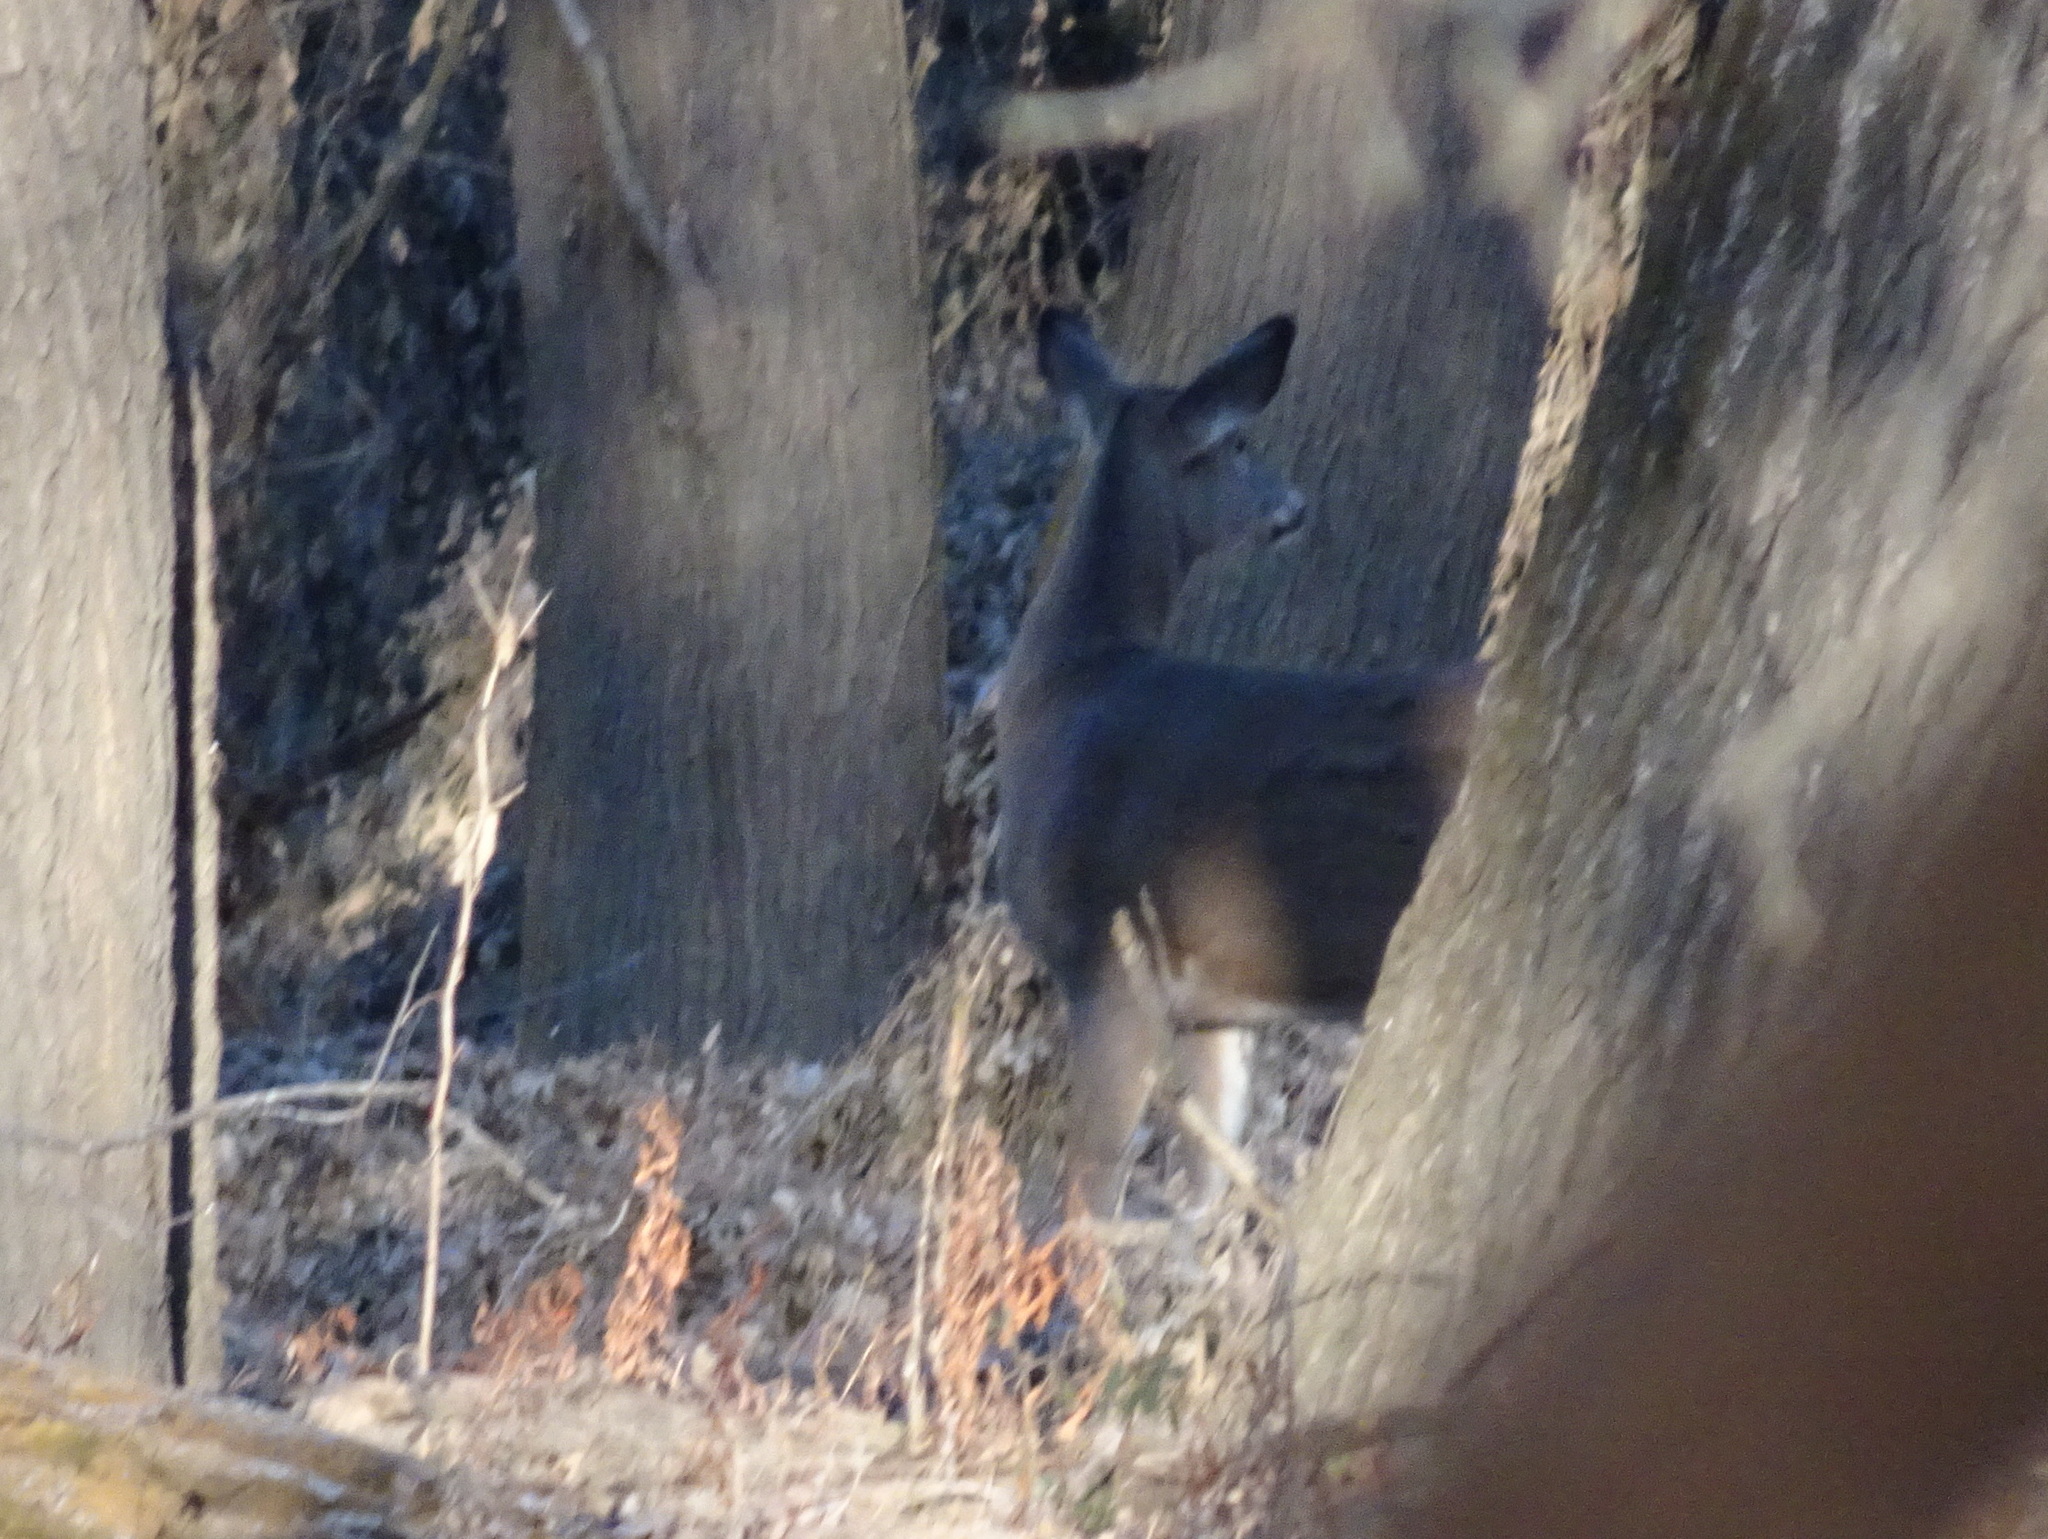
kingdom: Animalia
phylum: Chordata
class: Mammalia
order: Artiodactyla
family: Cervidae
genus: Odocoileus
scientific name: Odocoileus virginianus
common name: White-tailed deer
